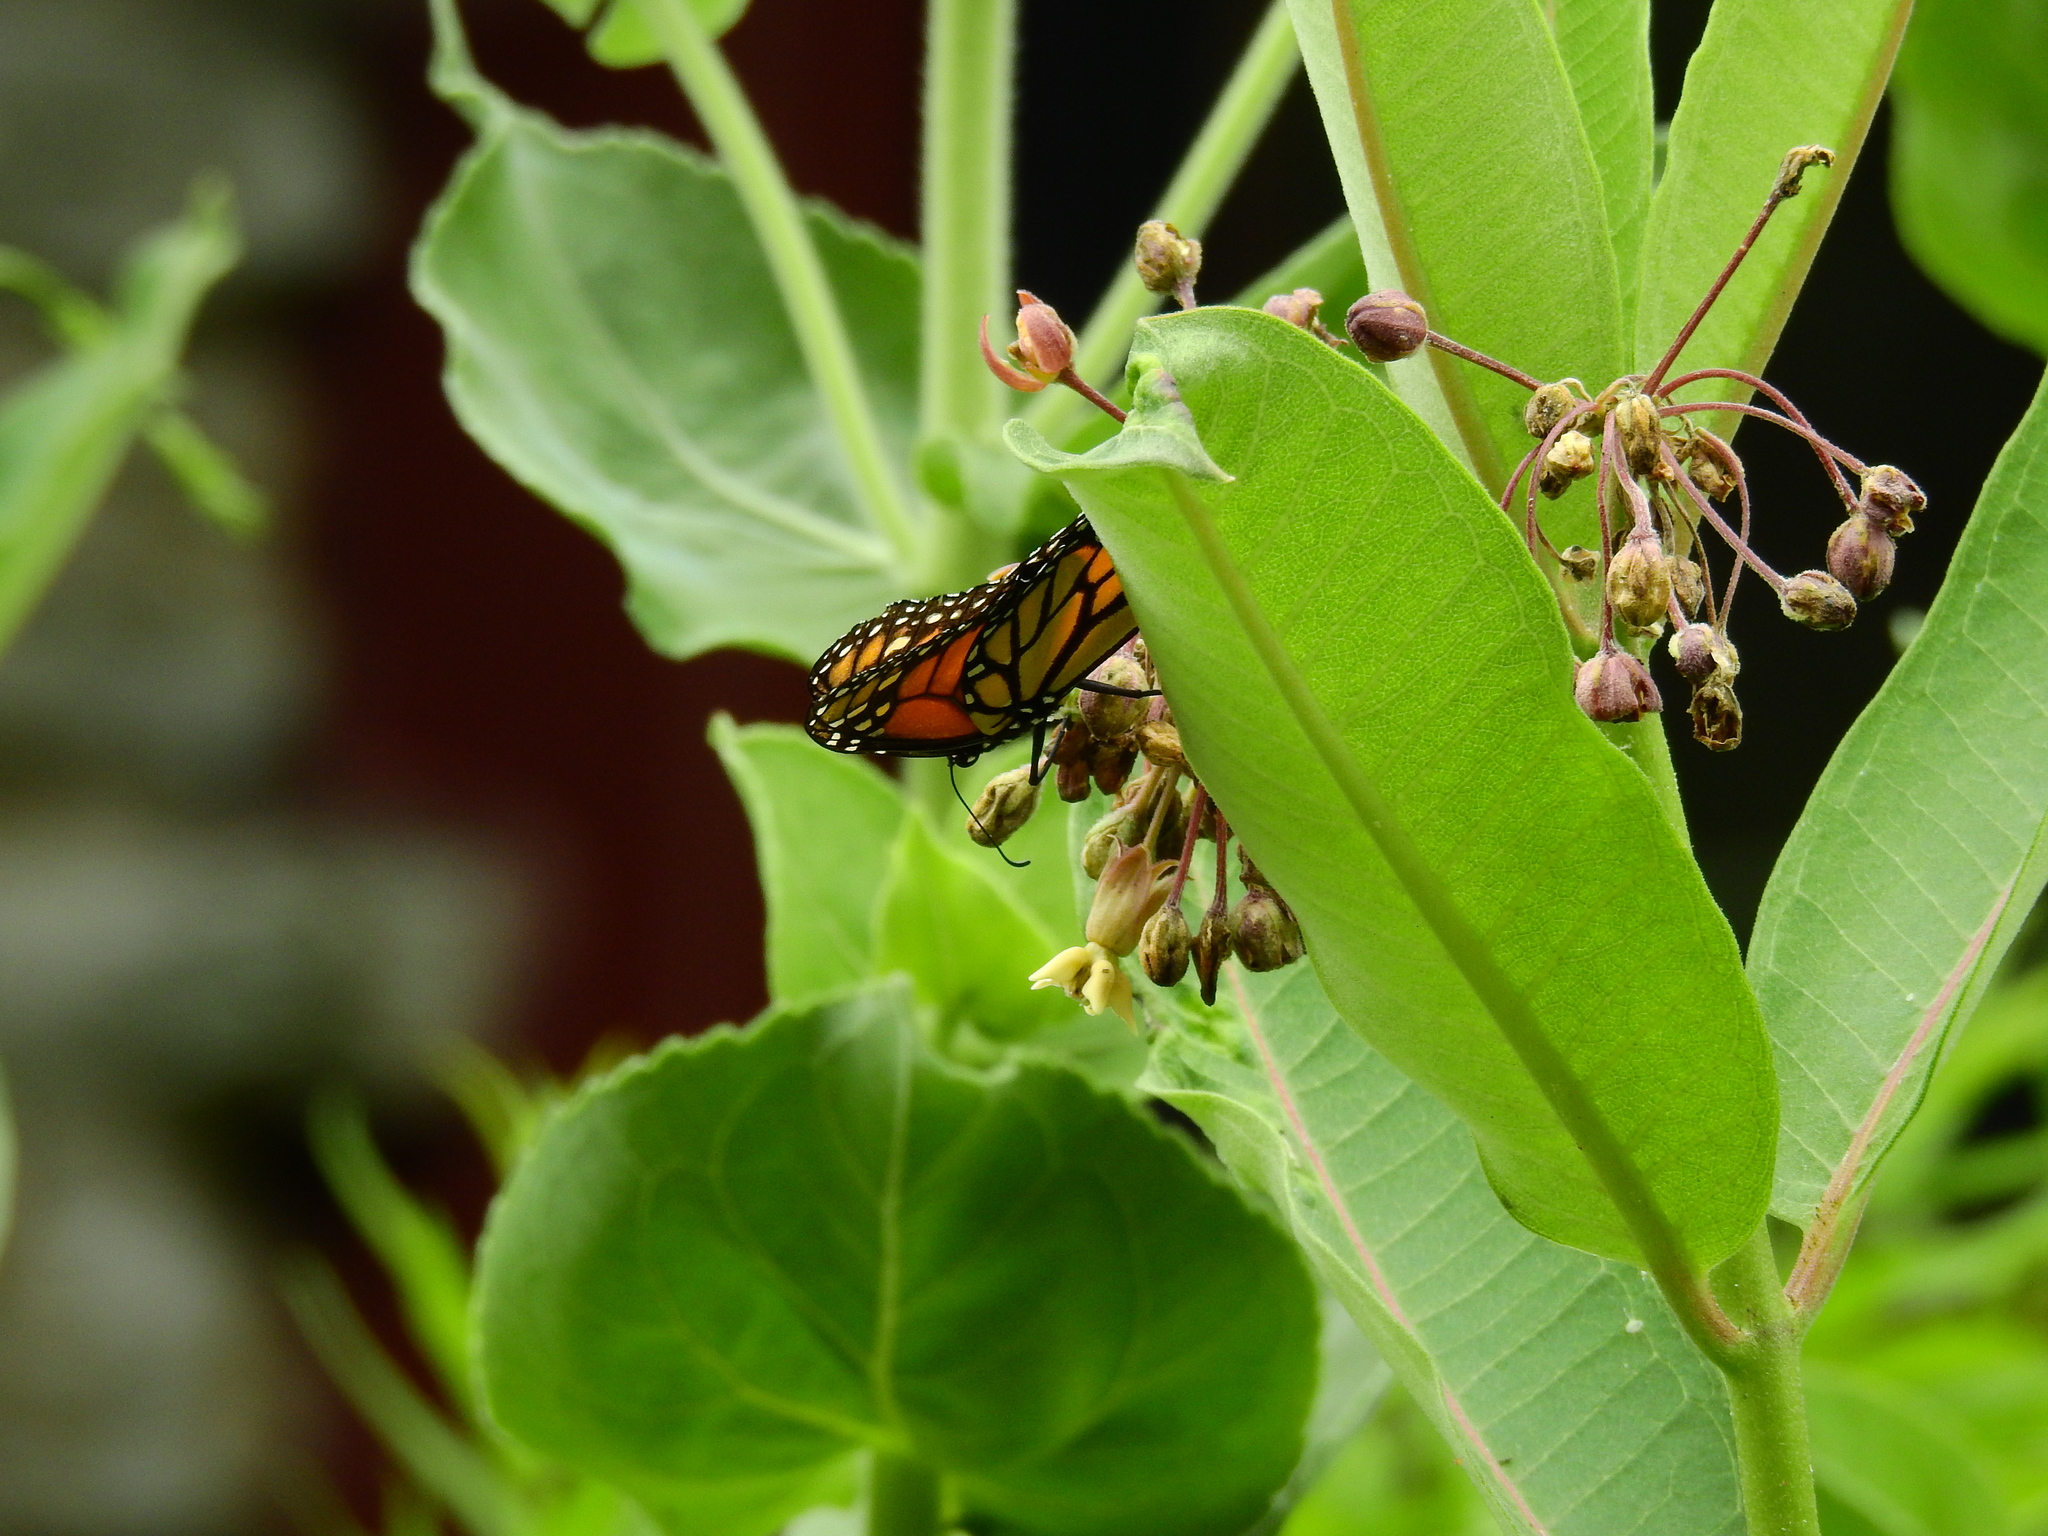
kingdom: Animalia
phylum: Arthropoda
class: Insecta
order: Lepidoptera
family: Nymphalidae
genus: Danaus
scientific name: Danaus plexippus
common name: Monarch
